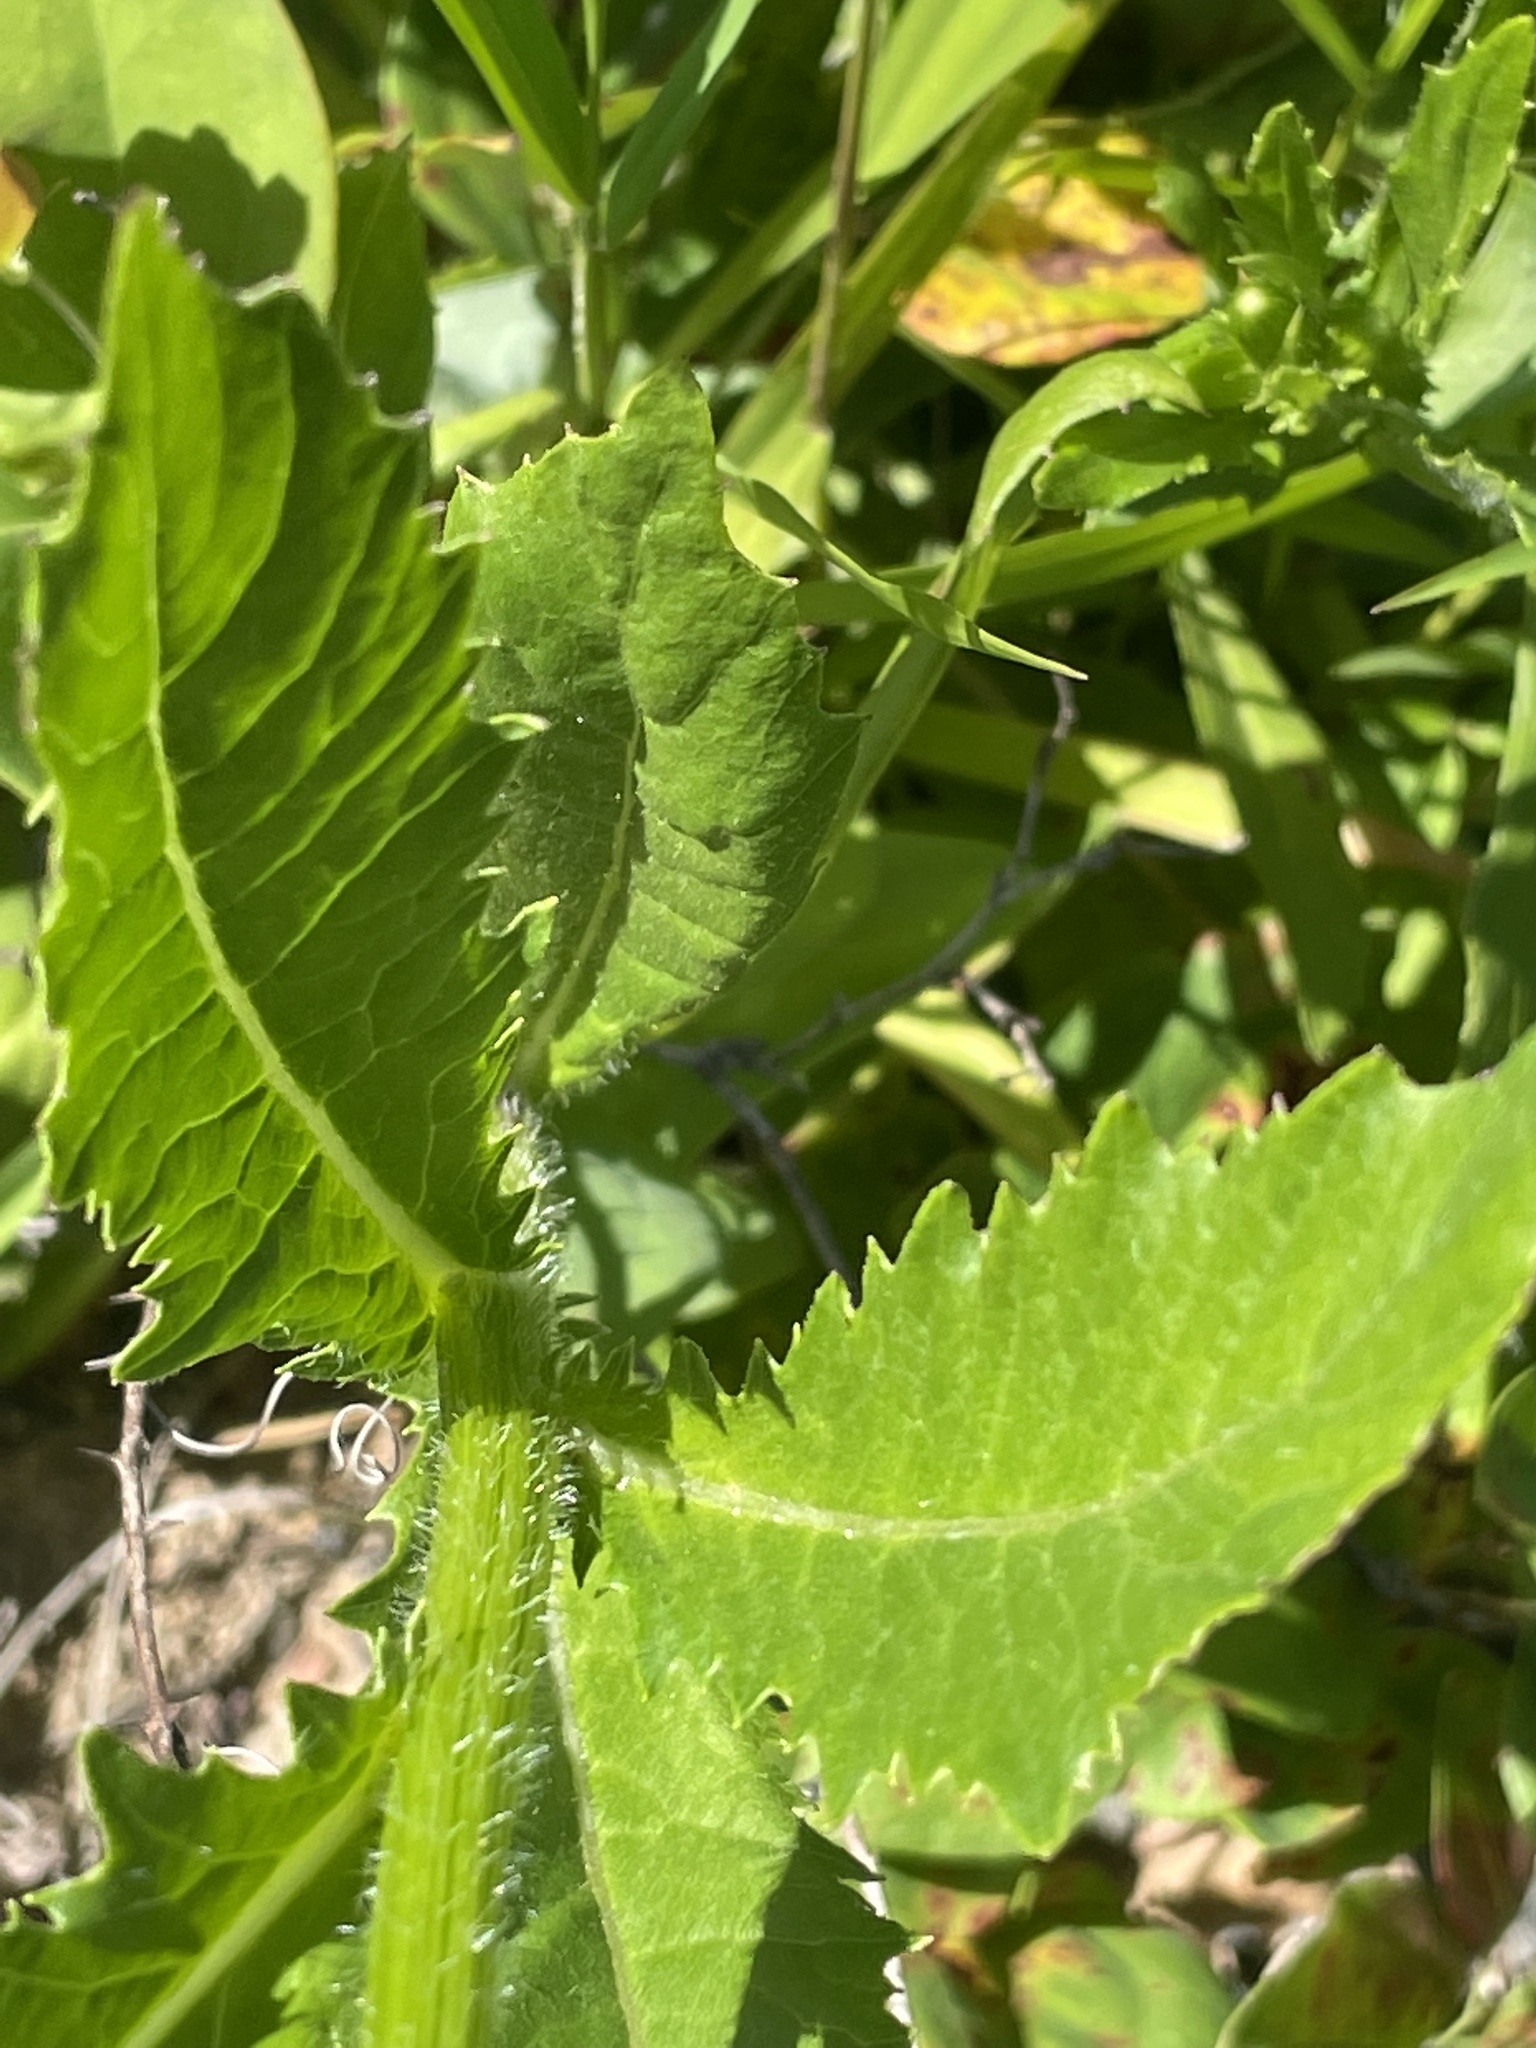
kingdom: Plantae
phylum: Tracheophyta
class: Magnoliopsida
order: Asterales
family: Asteraceae
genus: Erechtites
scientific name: Erechtites hieraciifolius
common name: American burnweed
